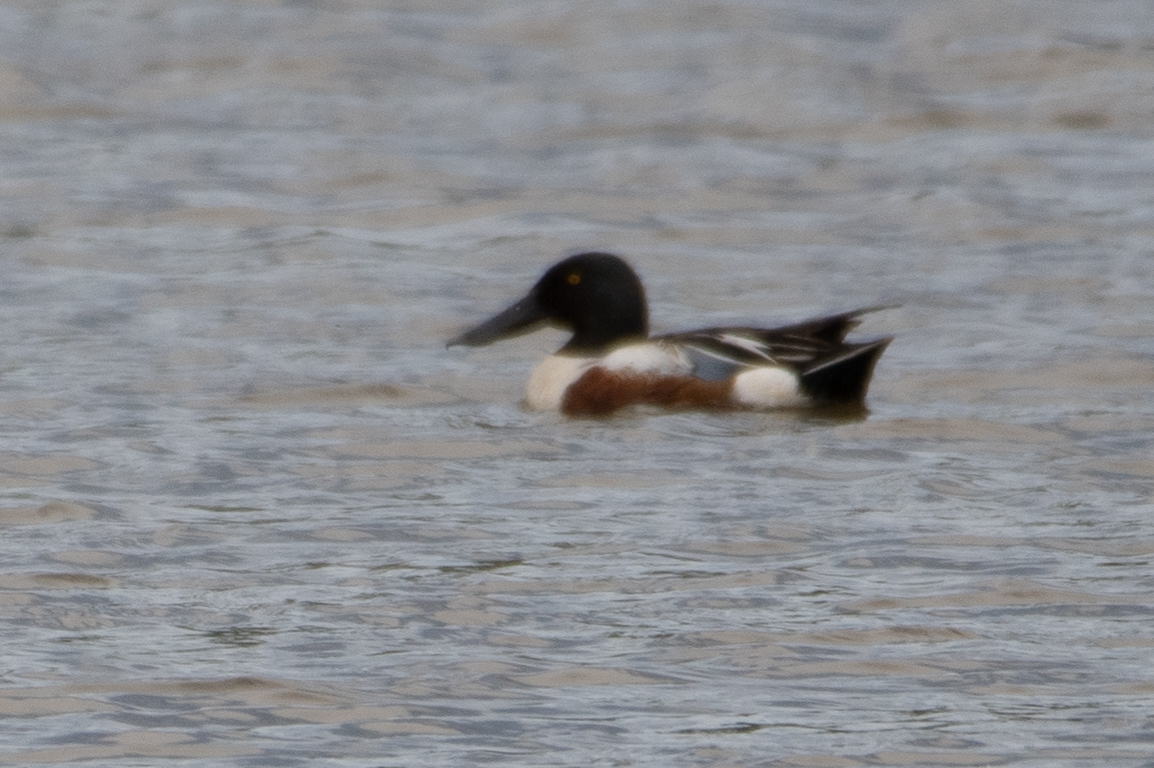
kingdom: Animalia
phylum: Chordata
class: Aves
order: Anseriformes
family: Anatidae
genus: Spatula
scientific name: Spatula clypeata
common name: Northern shoveler
